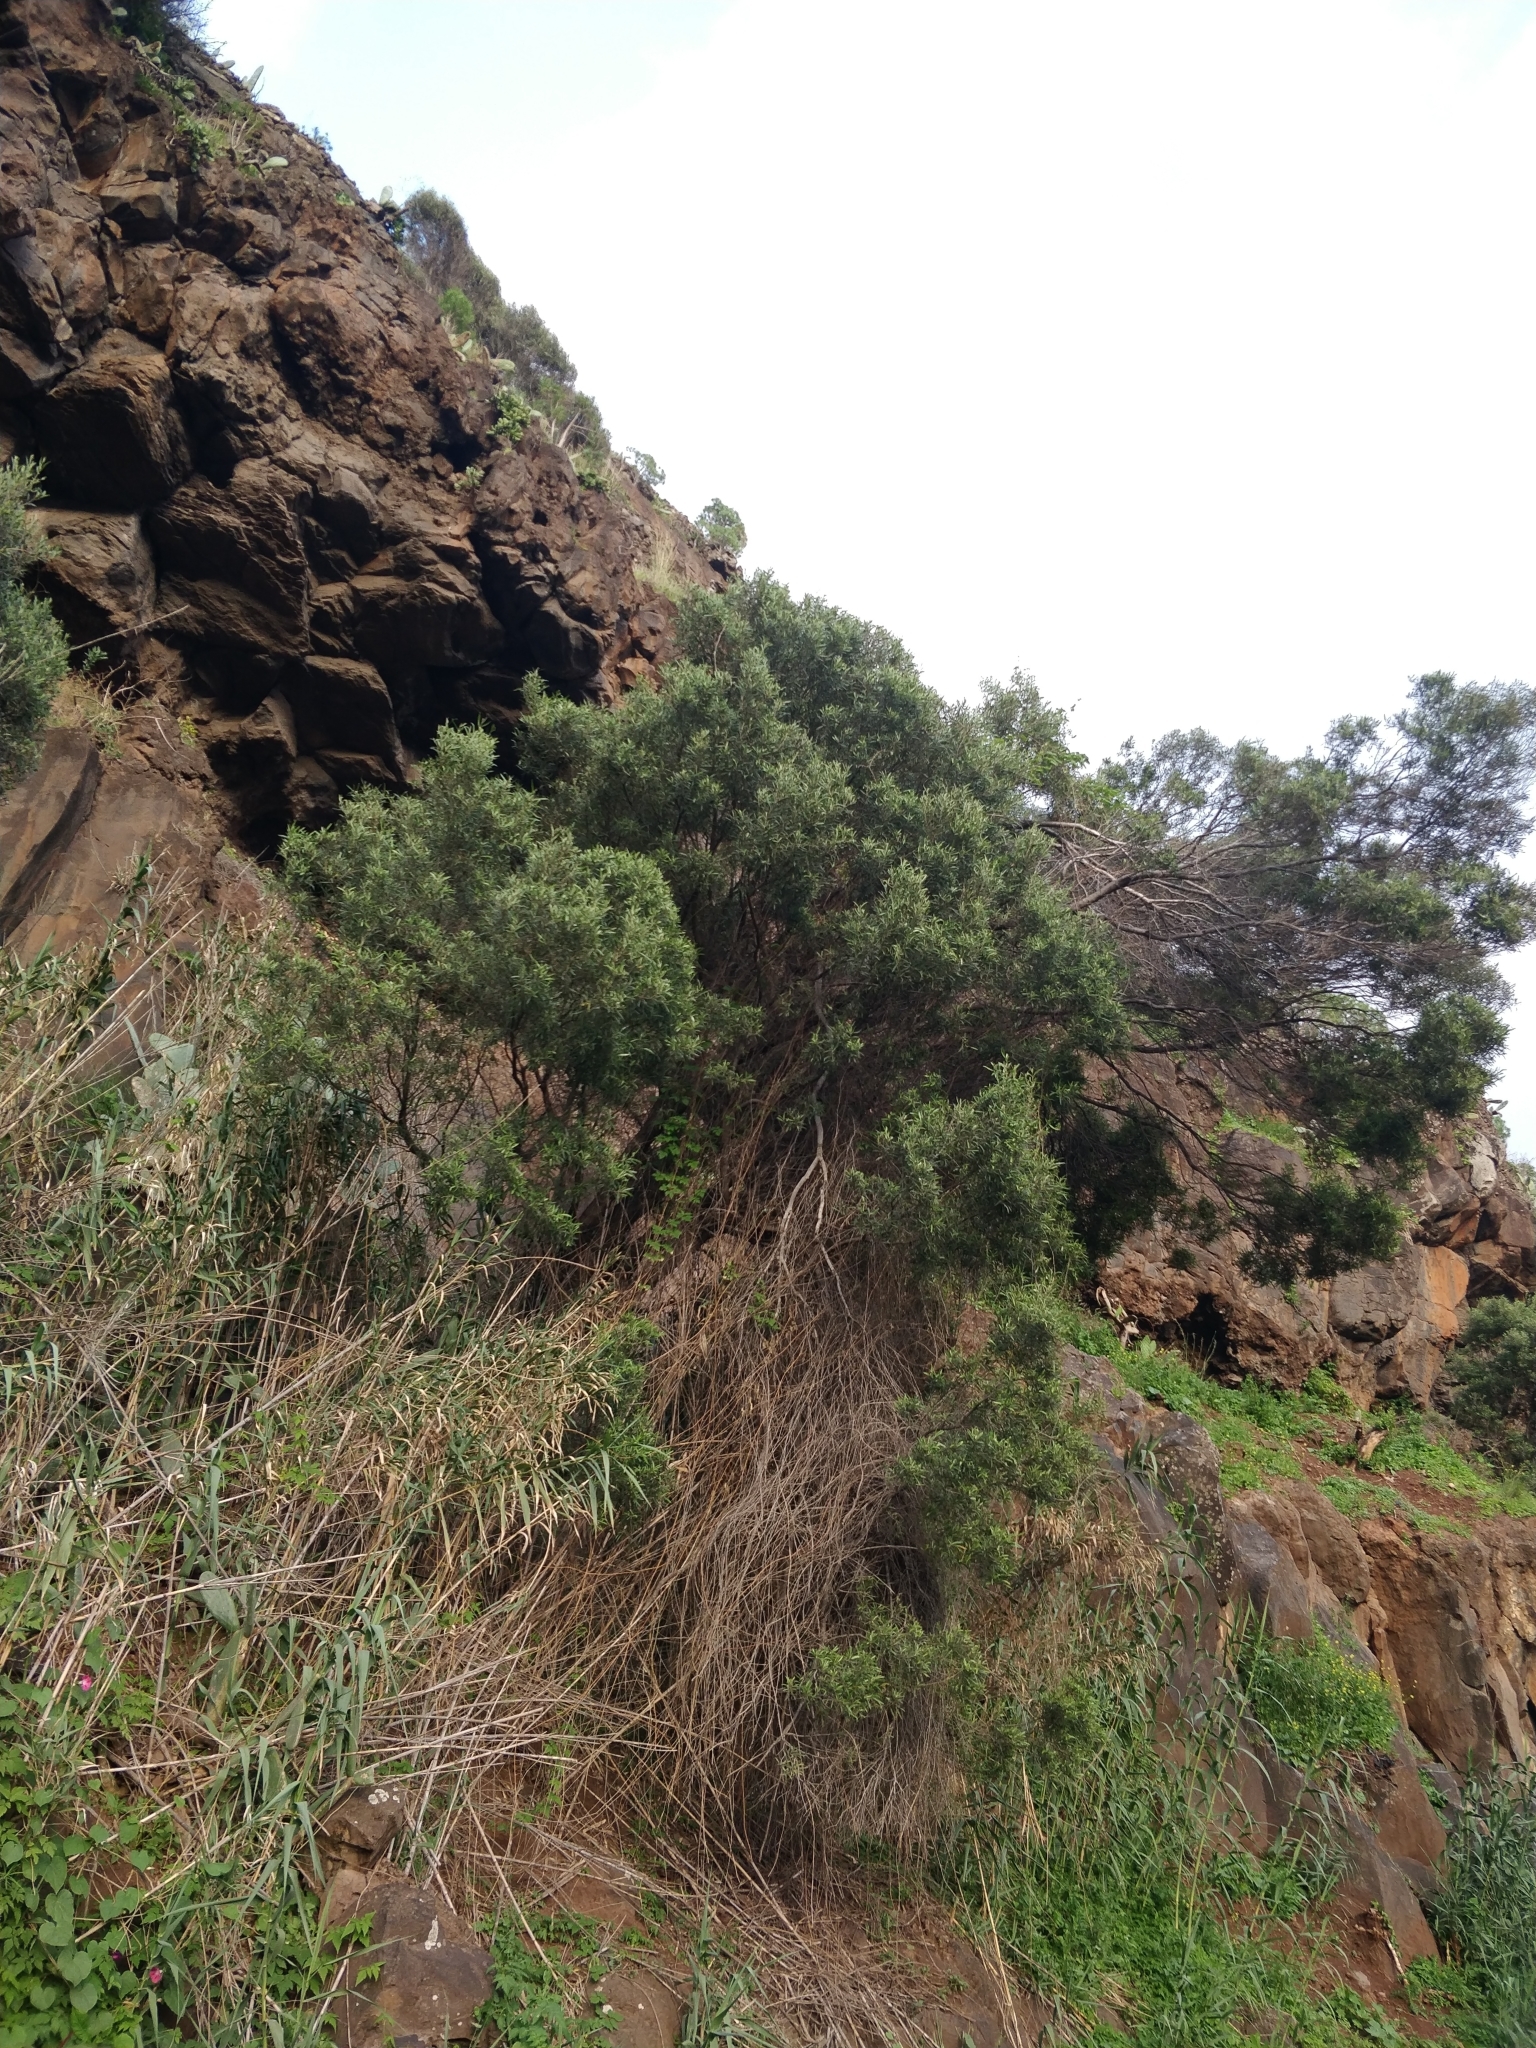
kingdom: Plantae
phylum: Tracheophyta
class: Magnoliopsida
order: Lamiales
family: Oleaceae
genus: Olea
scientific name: Olea europaea
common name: Olive
